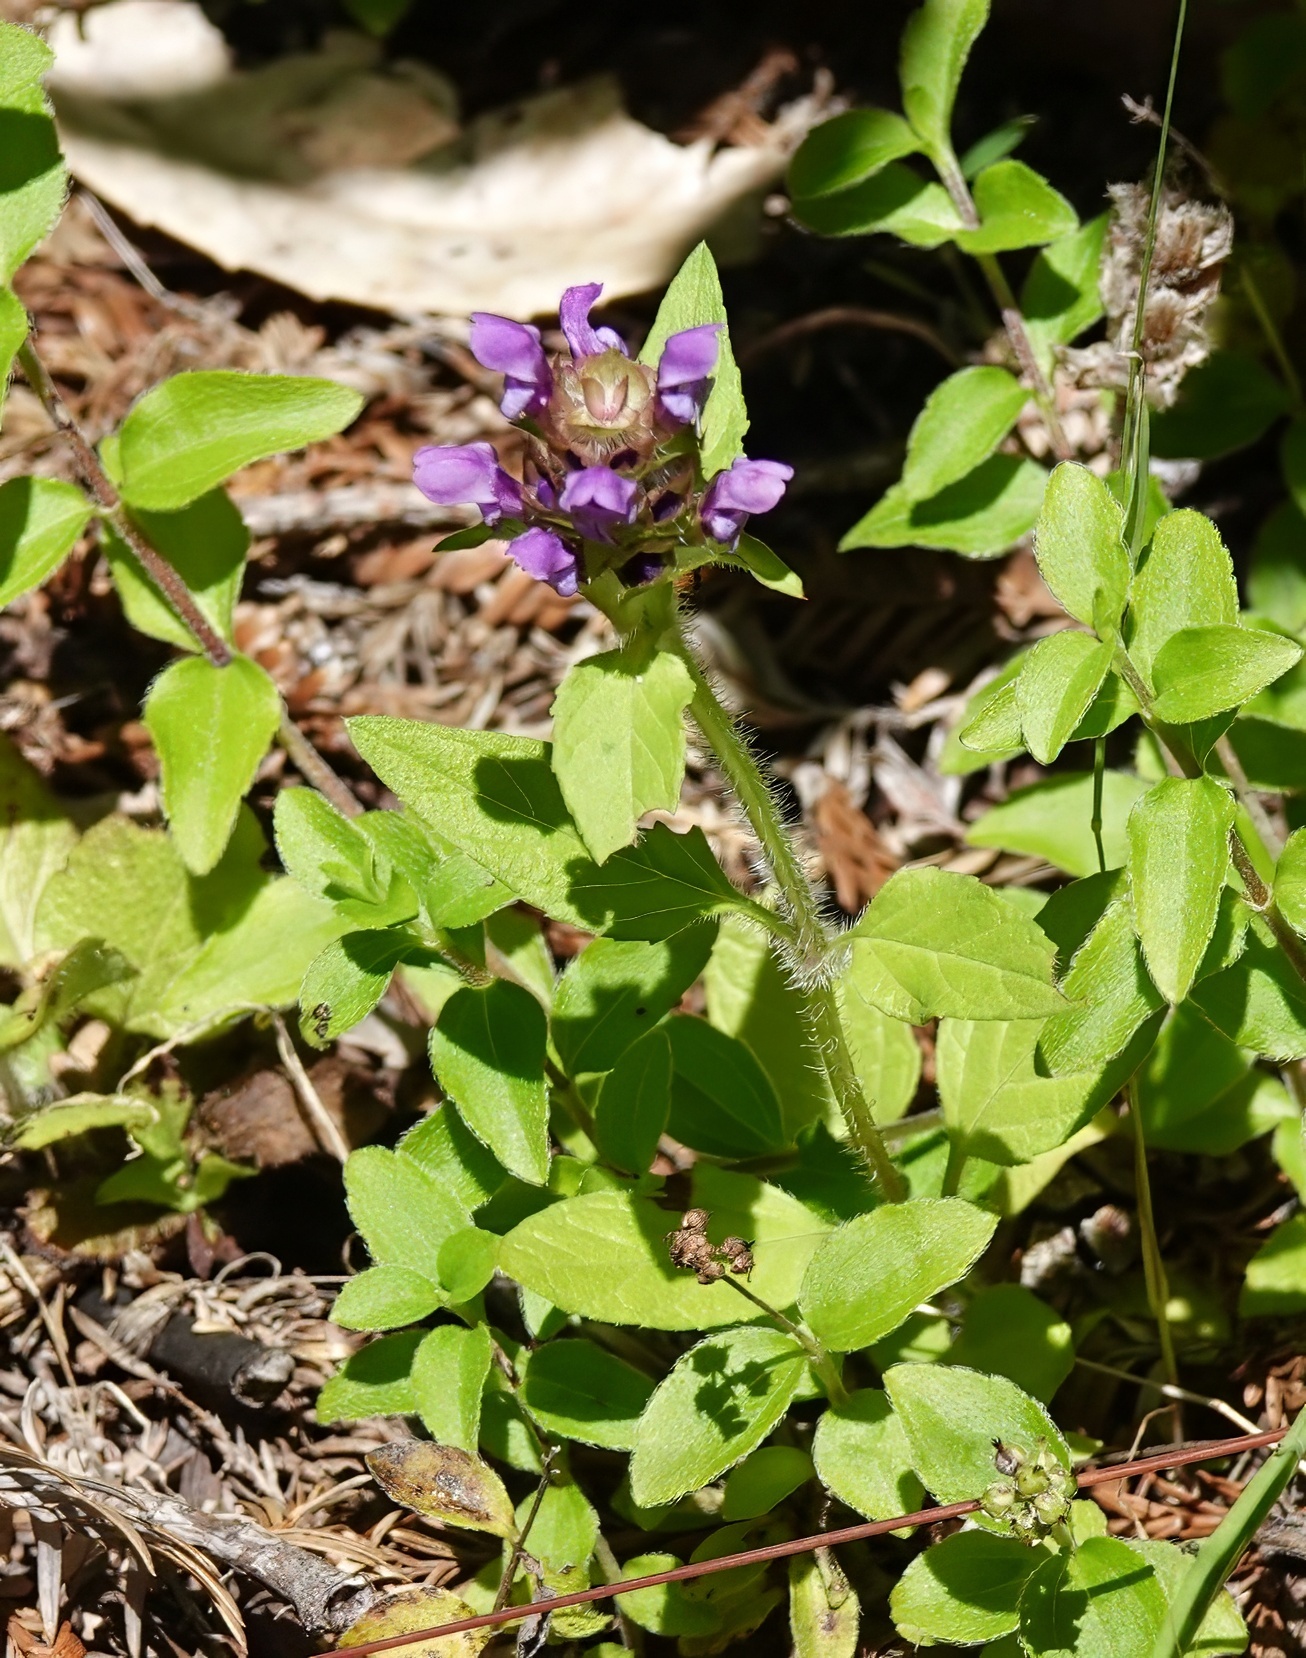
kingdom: Plantae
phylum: Tracheophyta
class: Magnoliopsida
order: Lamiales
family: Lamiaceae
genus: Prunella
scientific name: Prunella vulgaris
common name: Heal-all
